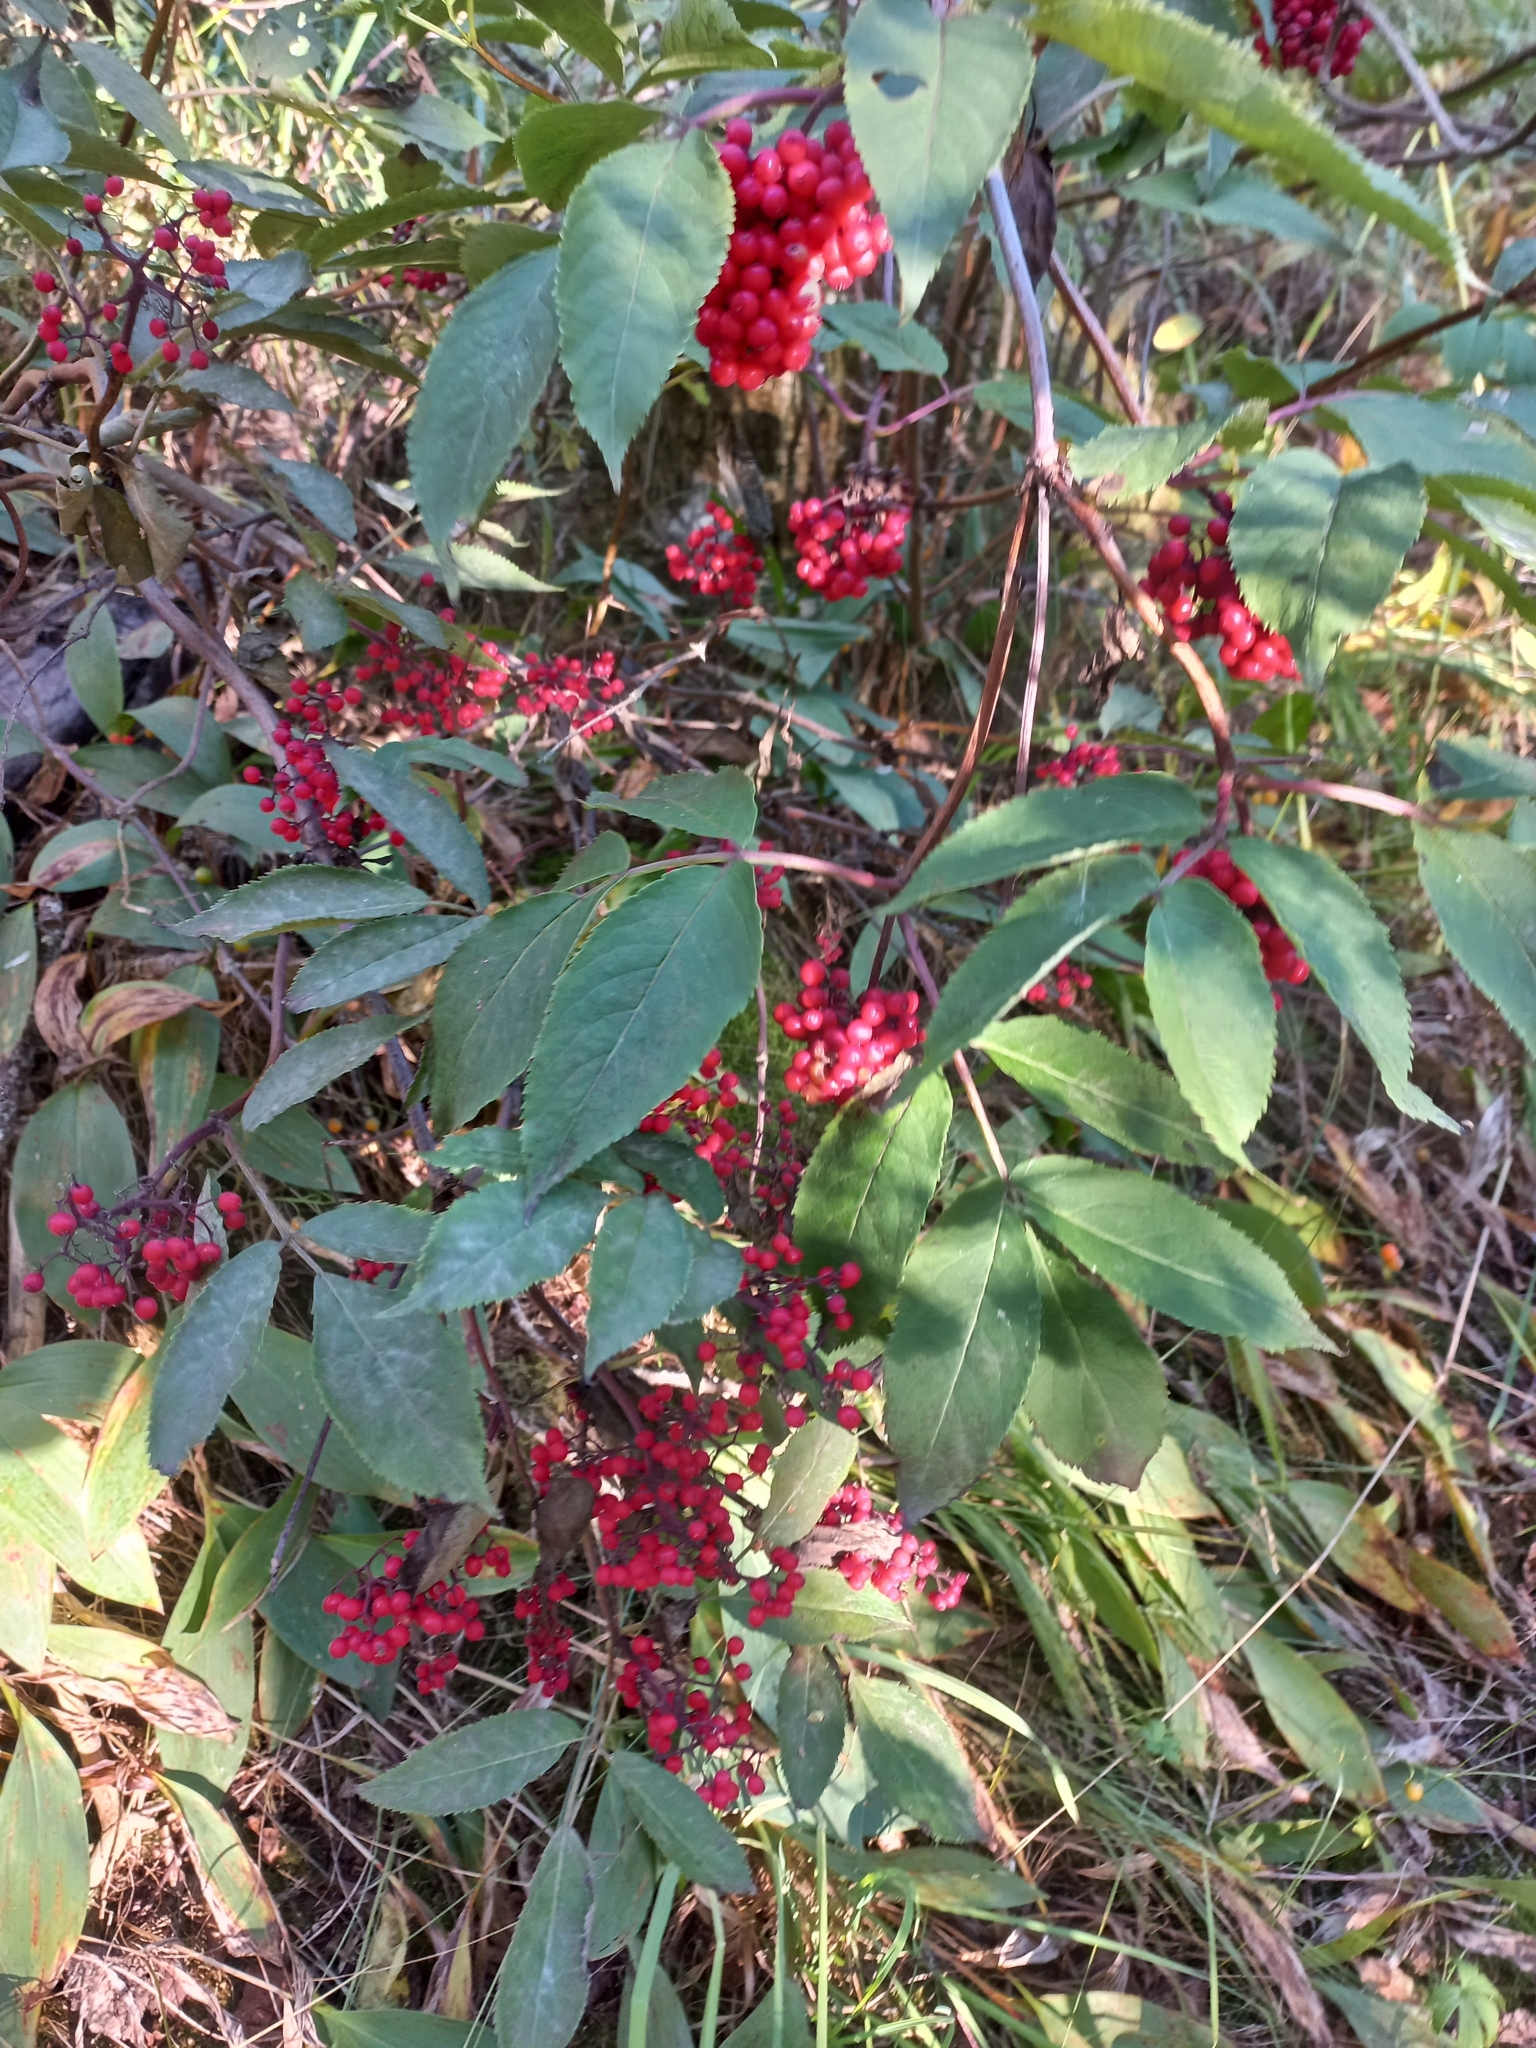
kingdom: Plantae
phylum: Tracheophyta
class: Magnoliopsida
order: Dipsacales
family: Viburnaceae
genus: Sambucus
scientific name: Sambucus racemosa
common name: Red-berried elder
